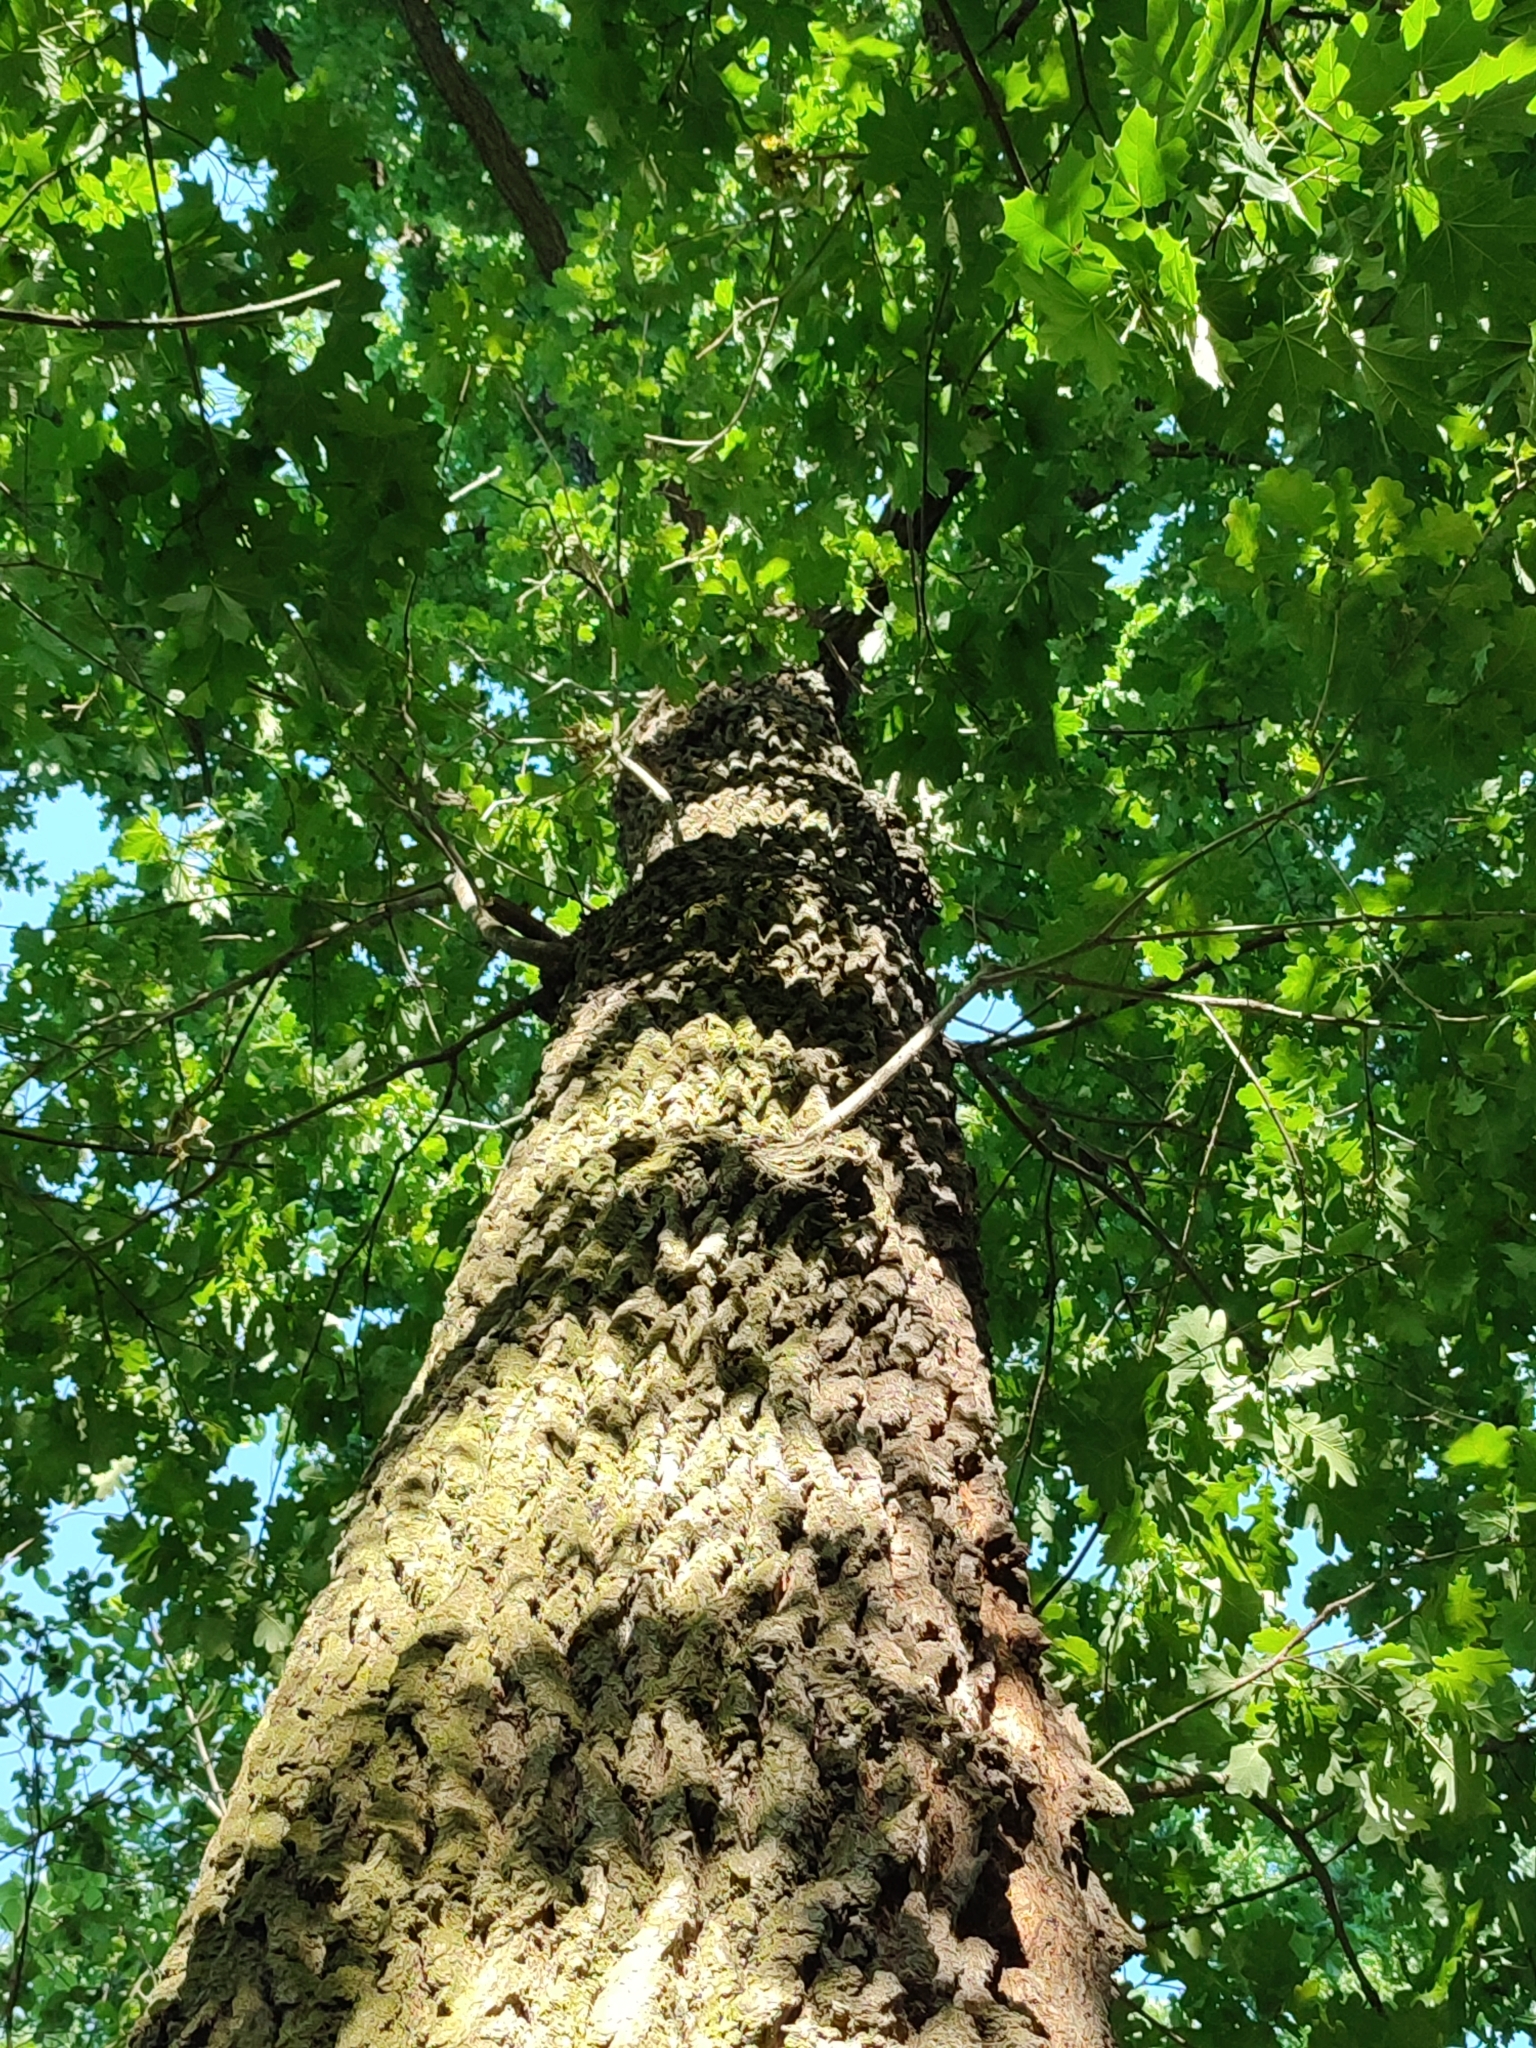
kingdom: Plantae
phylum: Tracheophyta
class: Magnoliopsida
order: Fagales
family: Fagaceae
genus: Quercus
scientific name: Quercus robur
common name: Pedunculate oak
